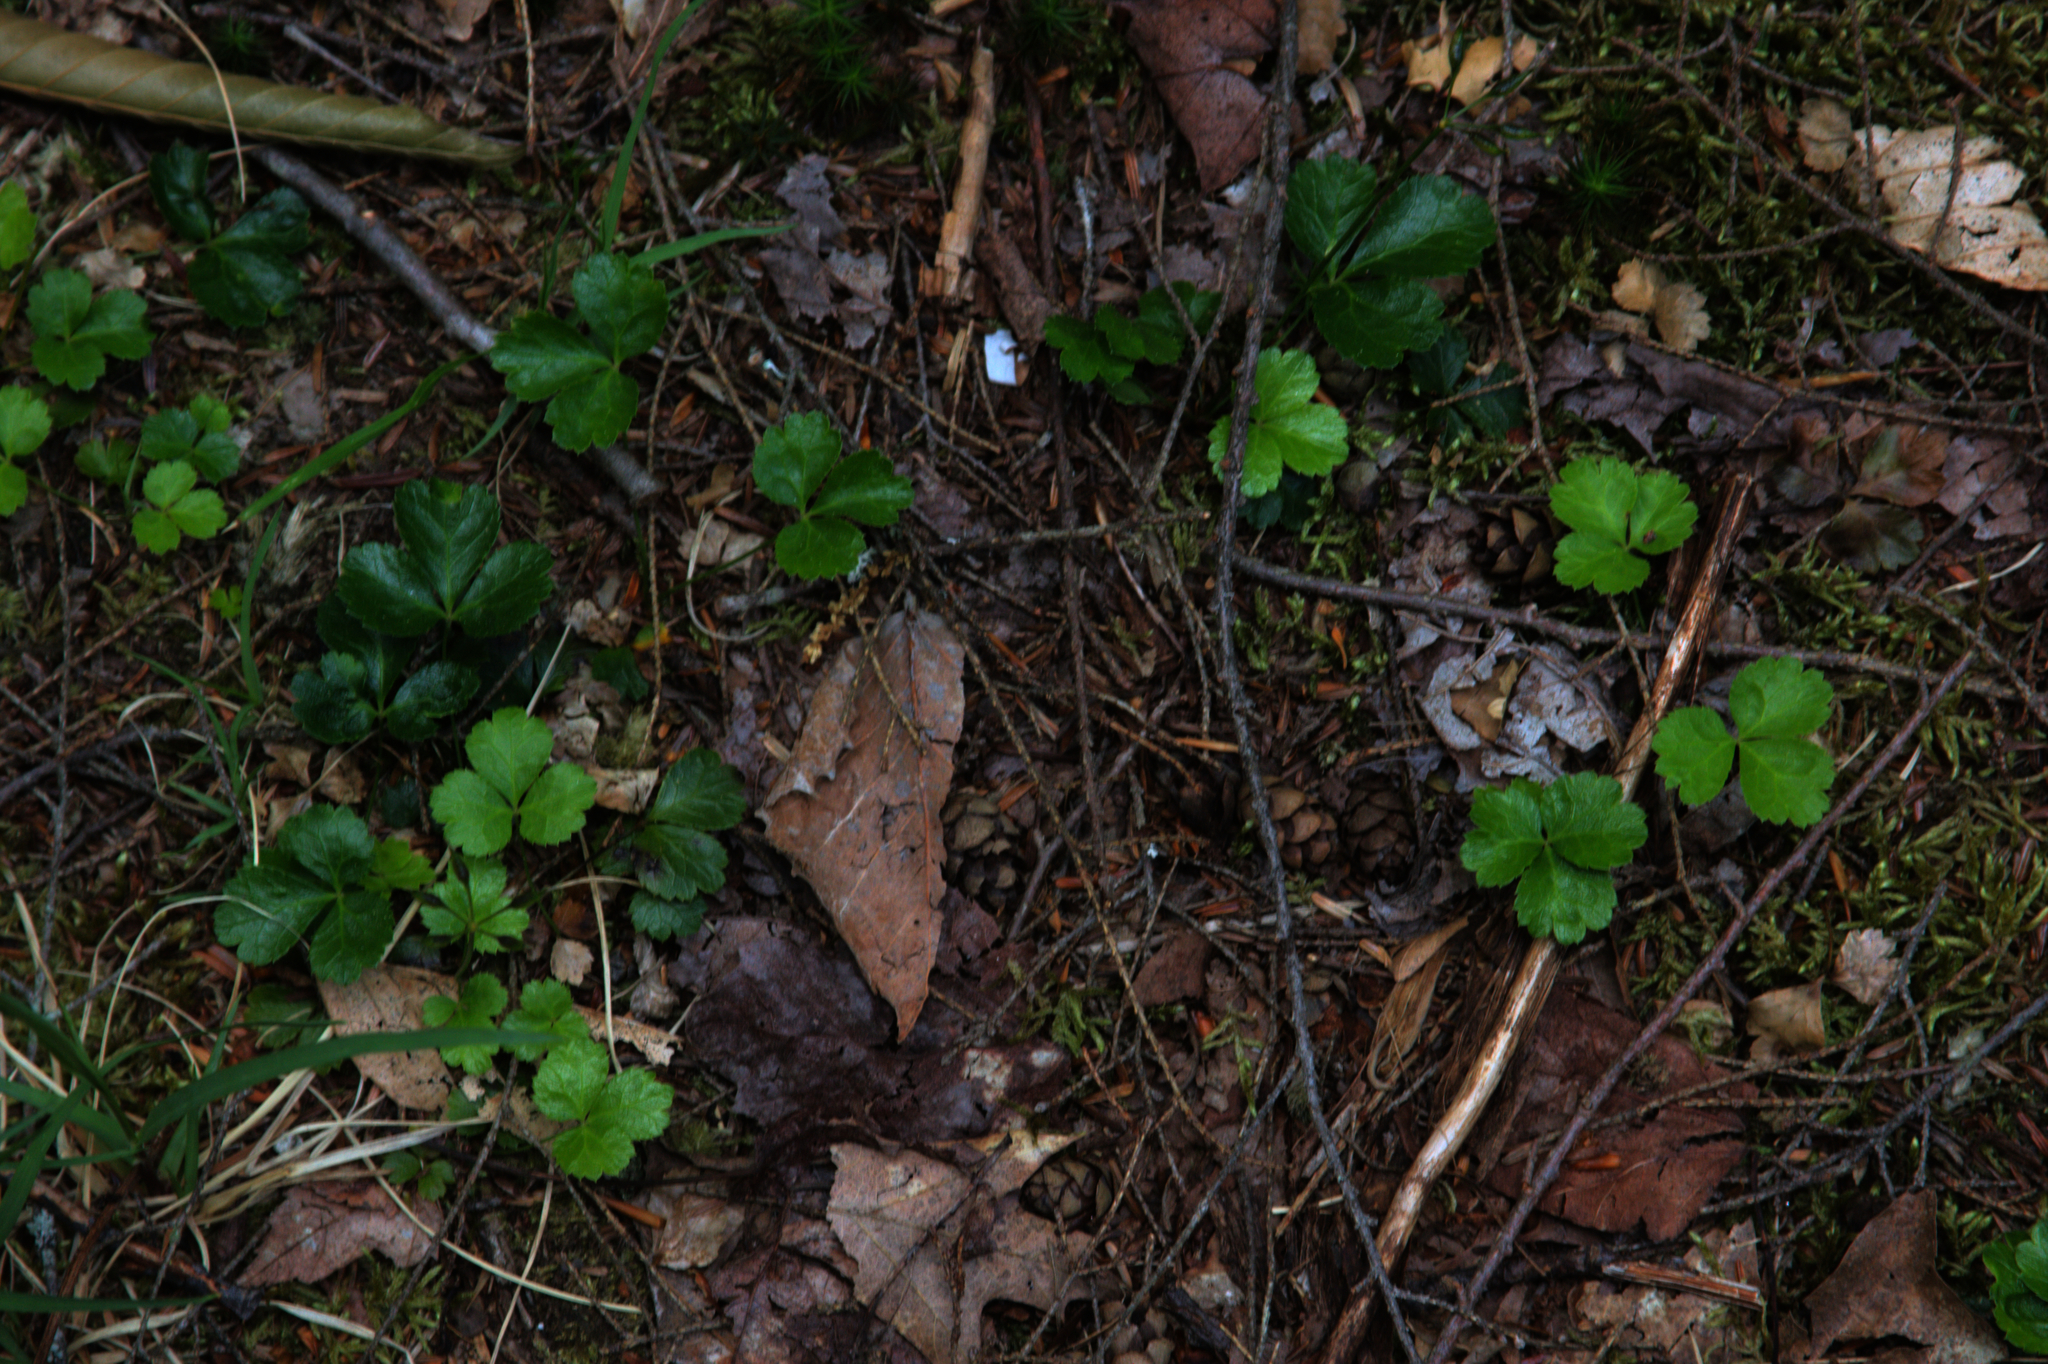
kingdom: Plantae
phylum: Tracheophyta
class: Magnoliopsida
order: Ranunculales
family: Ranunculaceae
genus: Coptis
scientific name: Coptis trifolia
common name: Canker-root
